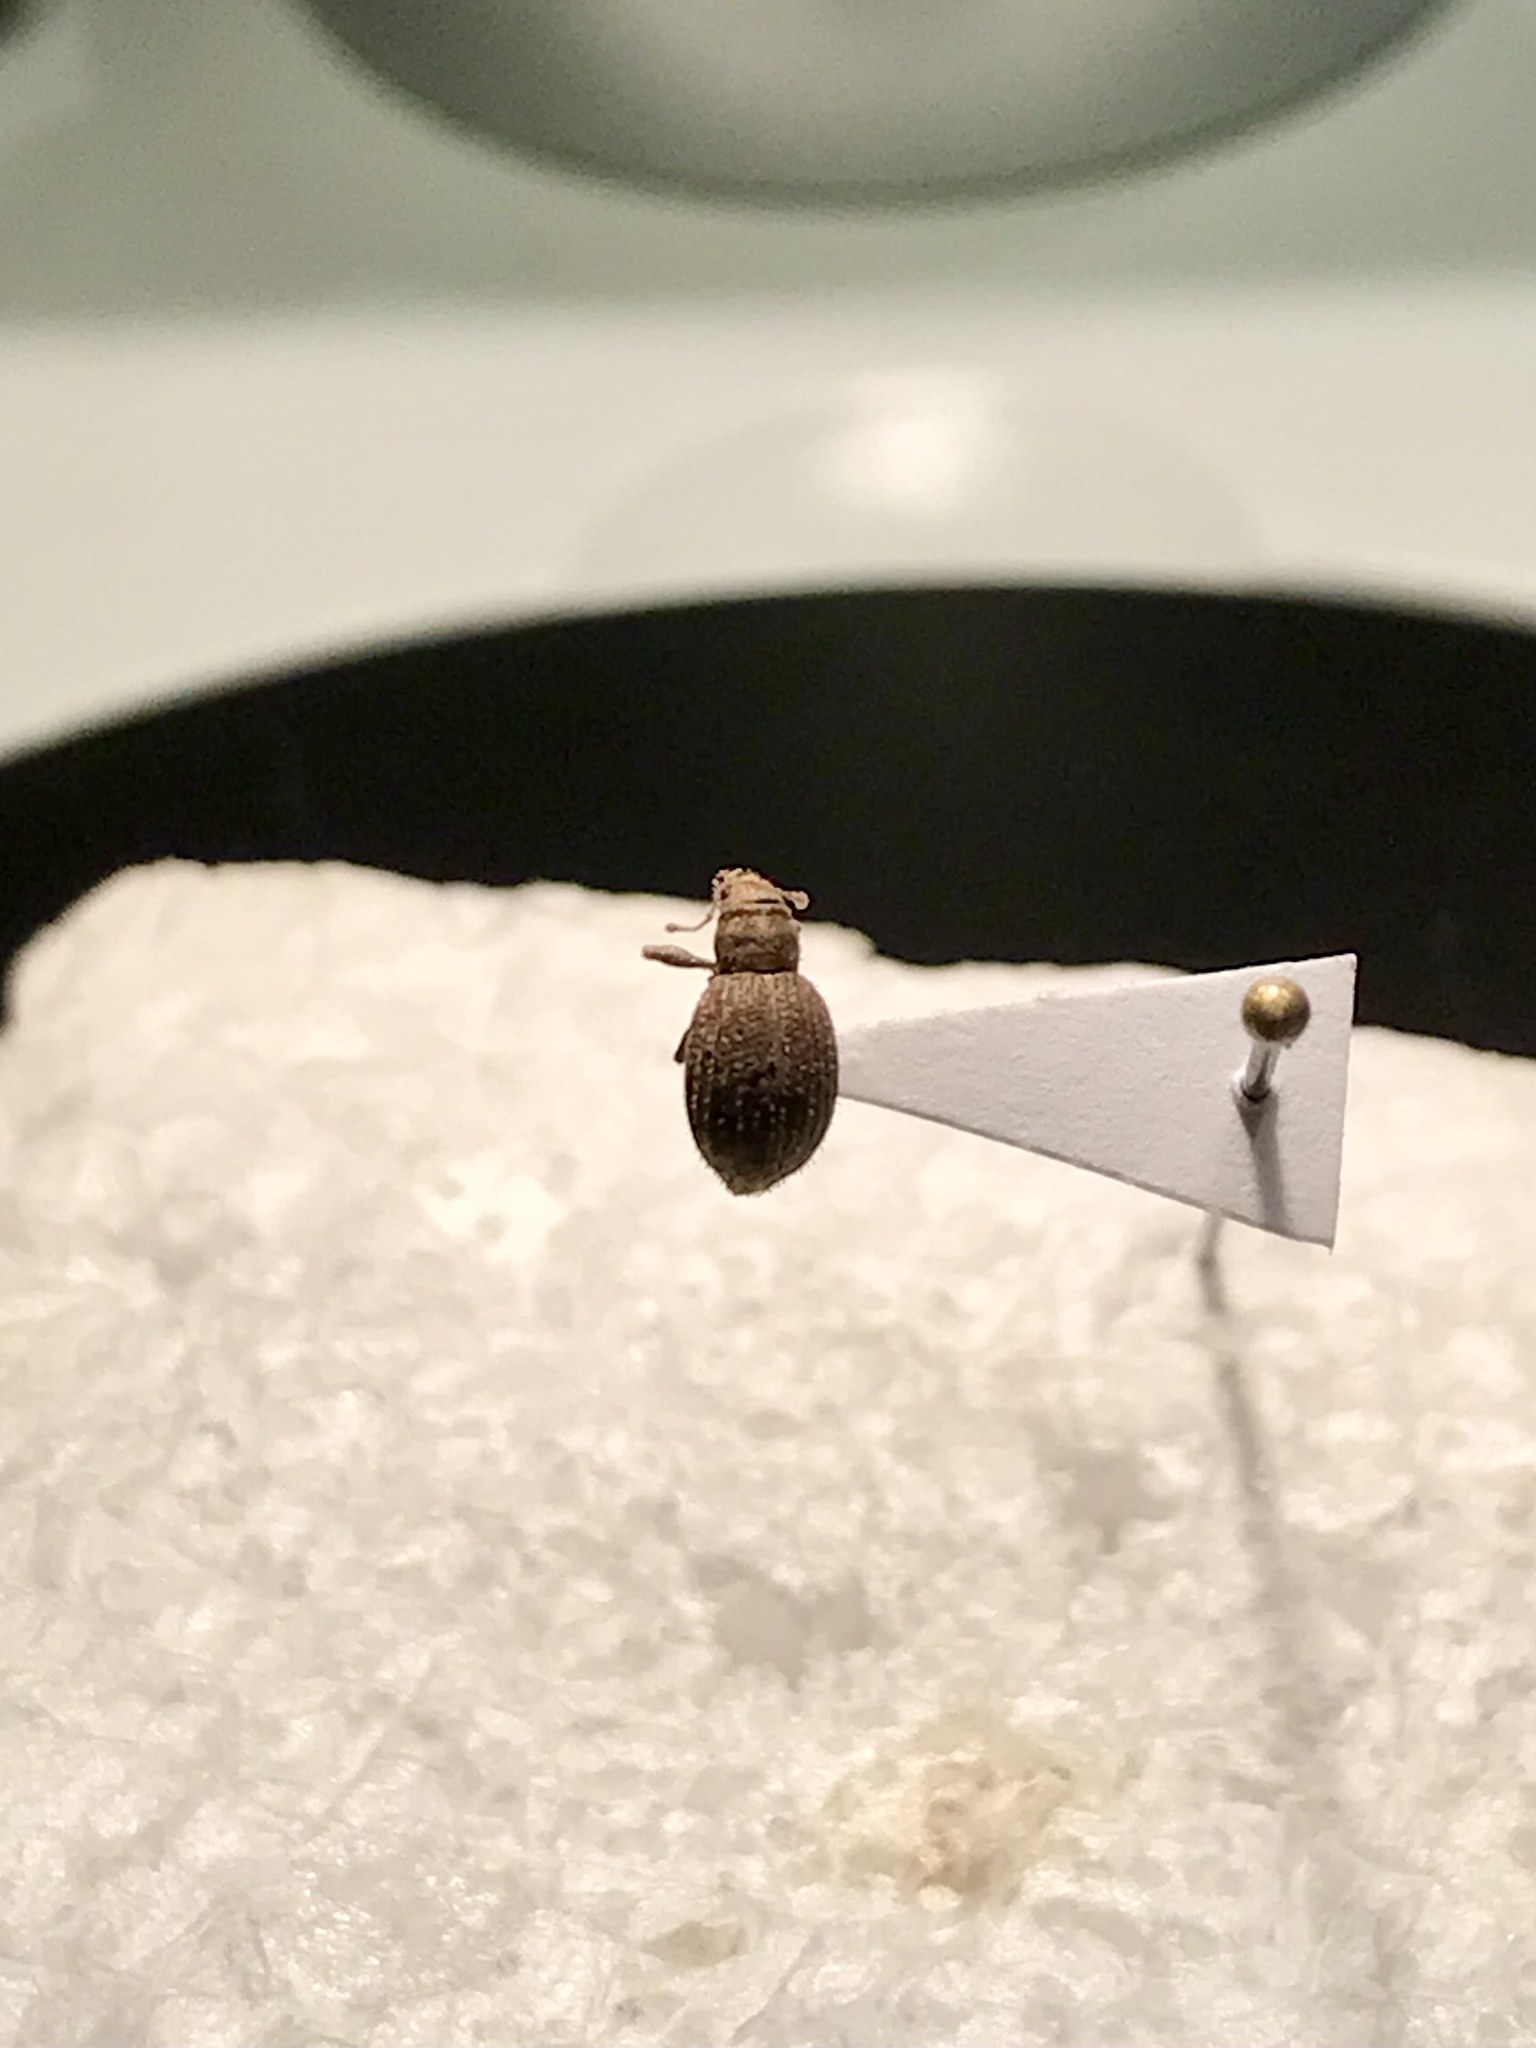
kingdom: Animalia
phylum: Arthropoda
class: Insecta
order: Coleoptera
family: Curculionidae
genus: Sciaphilus
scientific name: Sciaphilus asperatus
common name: Weevil
